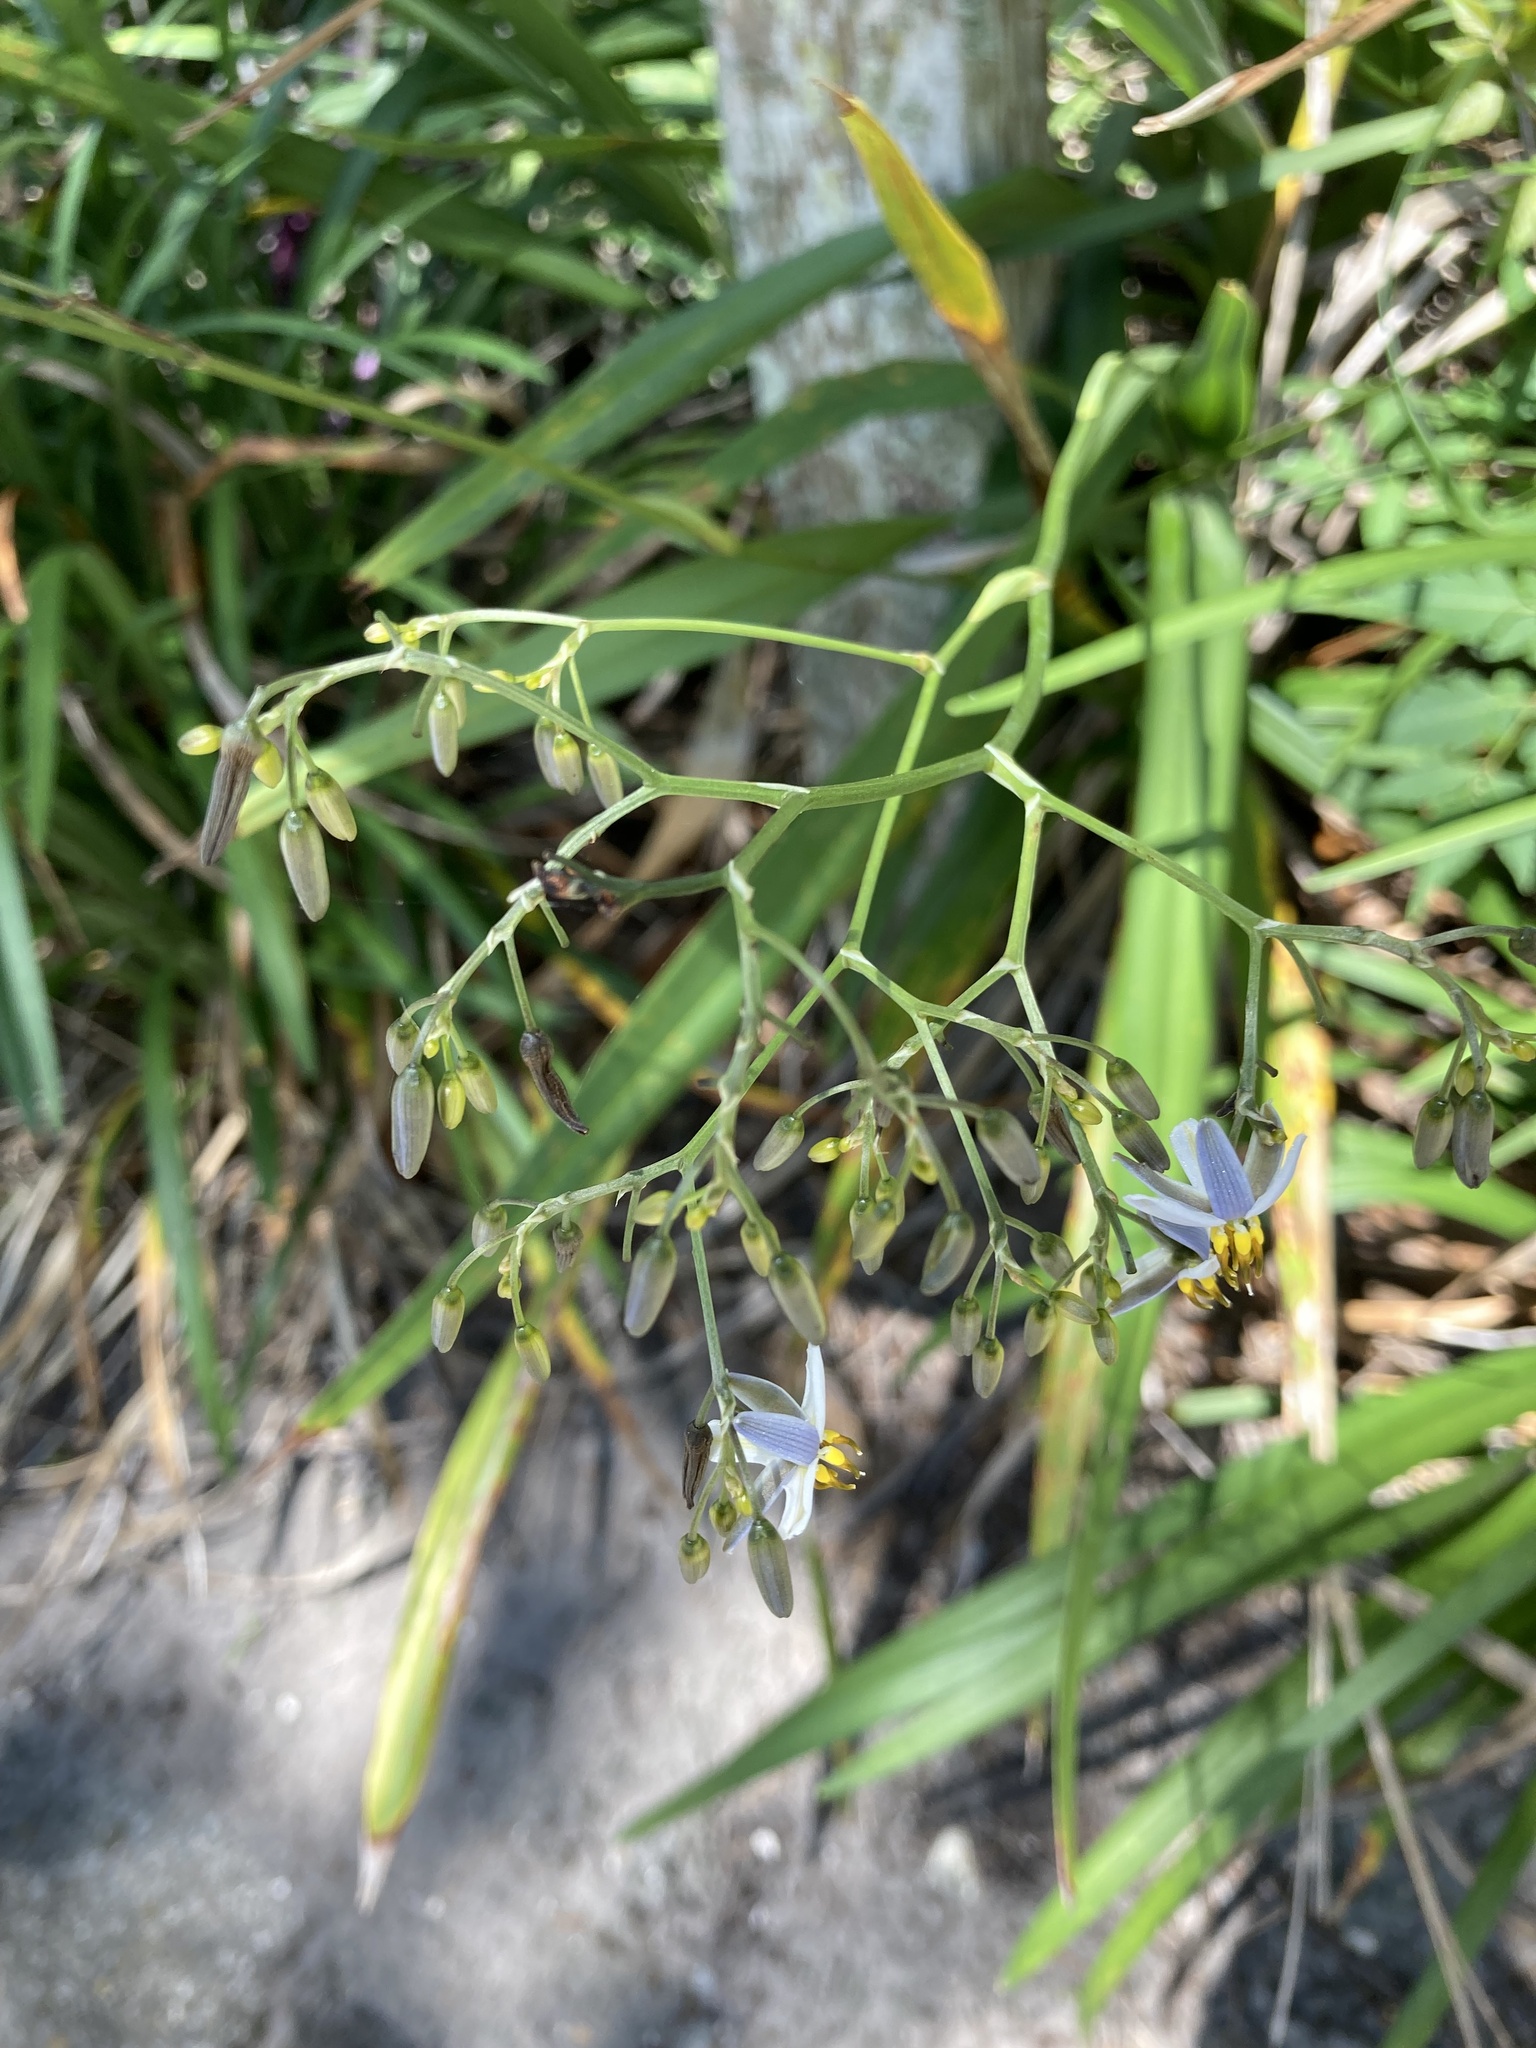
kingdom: Plantae
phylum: Tracheophyta
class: Liliopsida
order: Asparagales
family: Asphodelaceae
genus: Dianella
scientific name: Dianella ensifolia
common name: New zealand lilyplant
